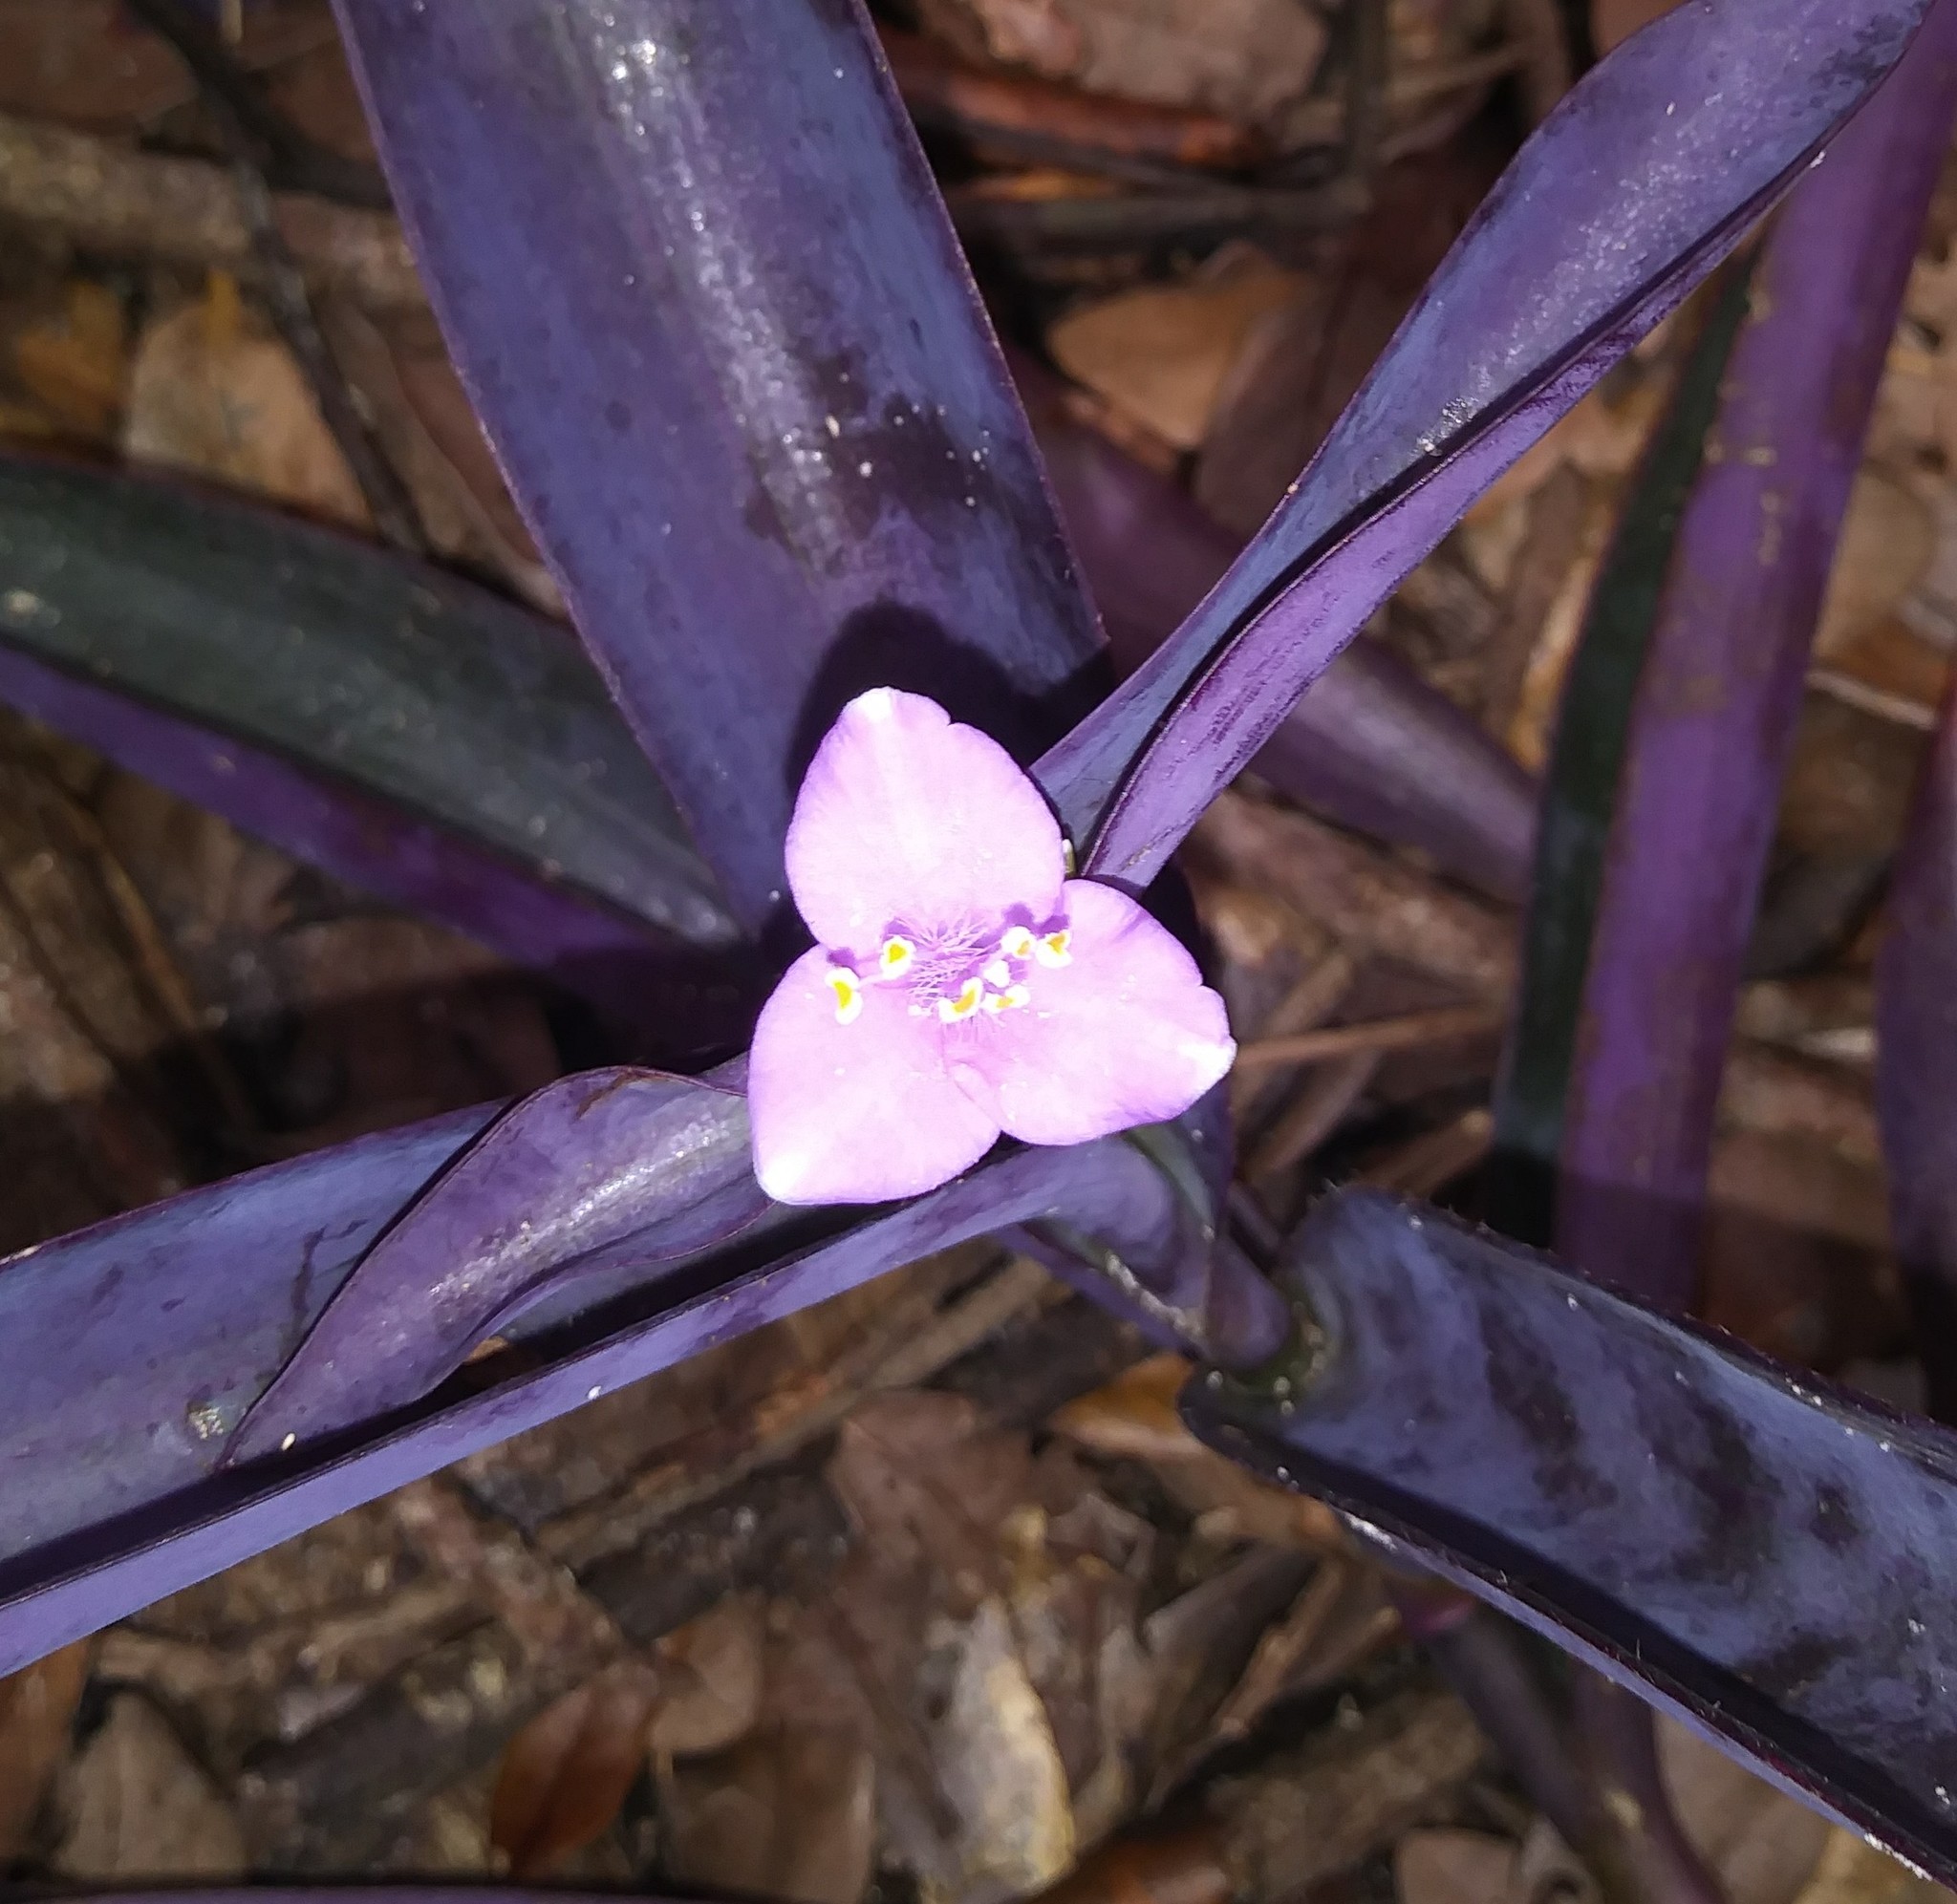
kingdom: Plantae
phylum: Tracheophyta
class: Liliopsida
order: Commelinales
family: Commelinaceae
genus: Tradescantia
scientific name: Tradescantia pallida
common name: Purpleheart
